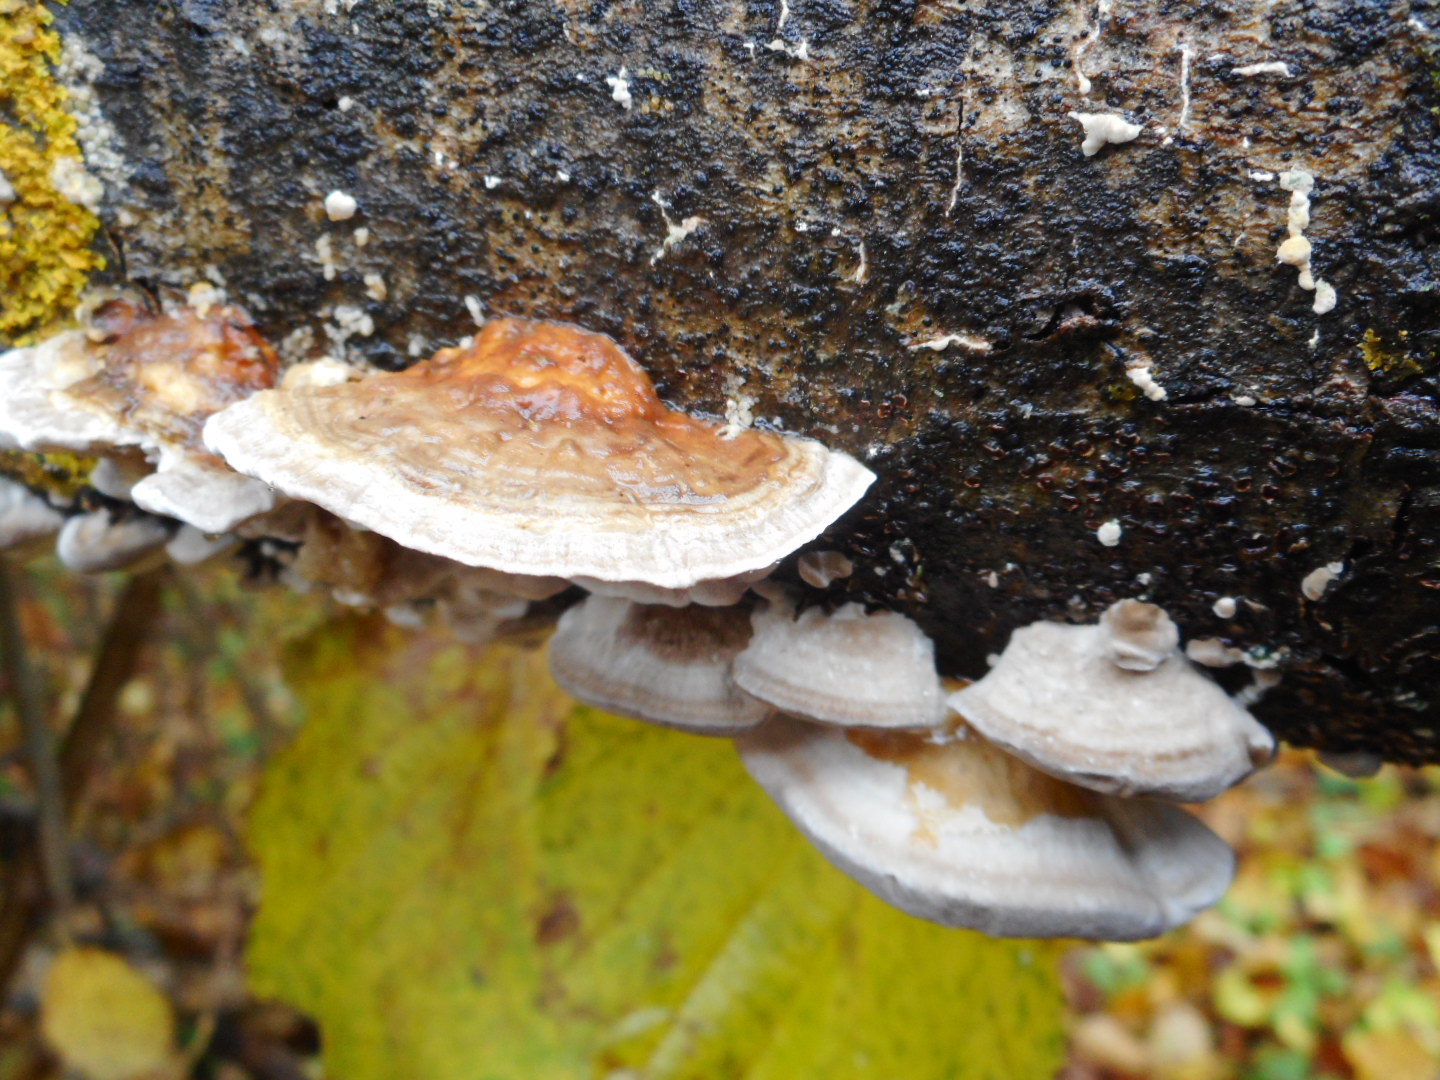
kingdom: Fungi
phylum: Basidiomycota
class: Agaricomycetes
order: Polyporales
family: Polyporaceae
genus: Trametes
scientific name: Trametes ochracea
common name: Ochre bracket
